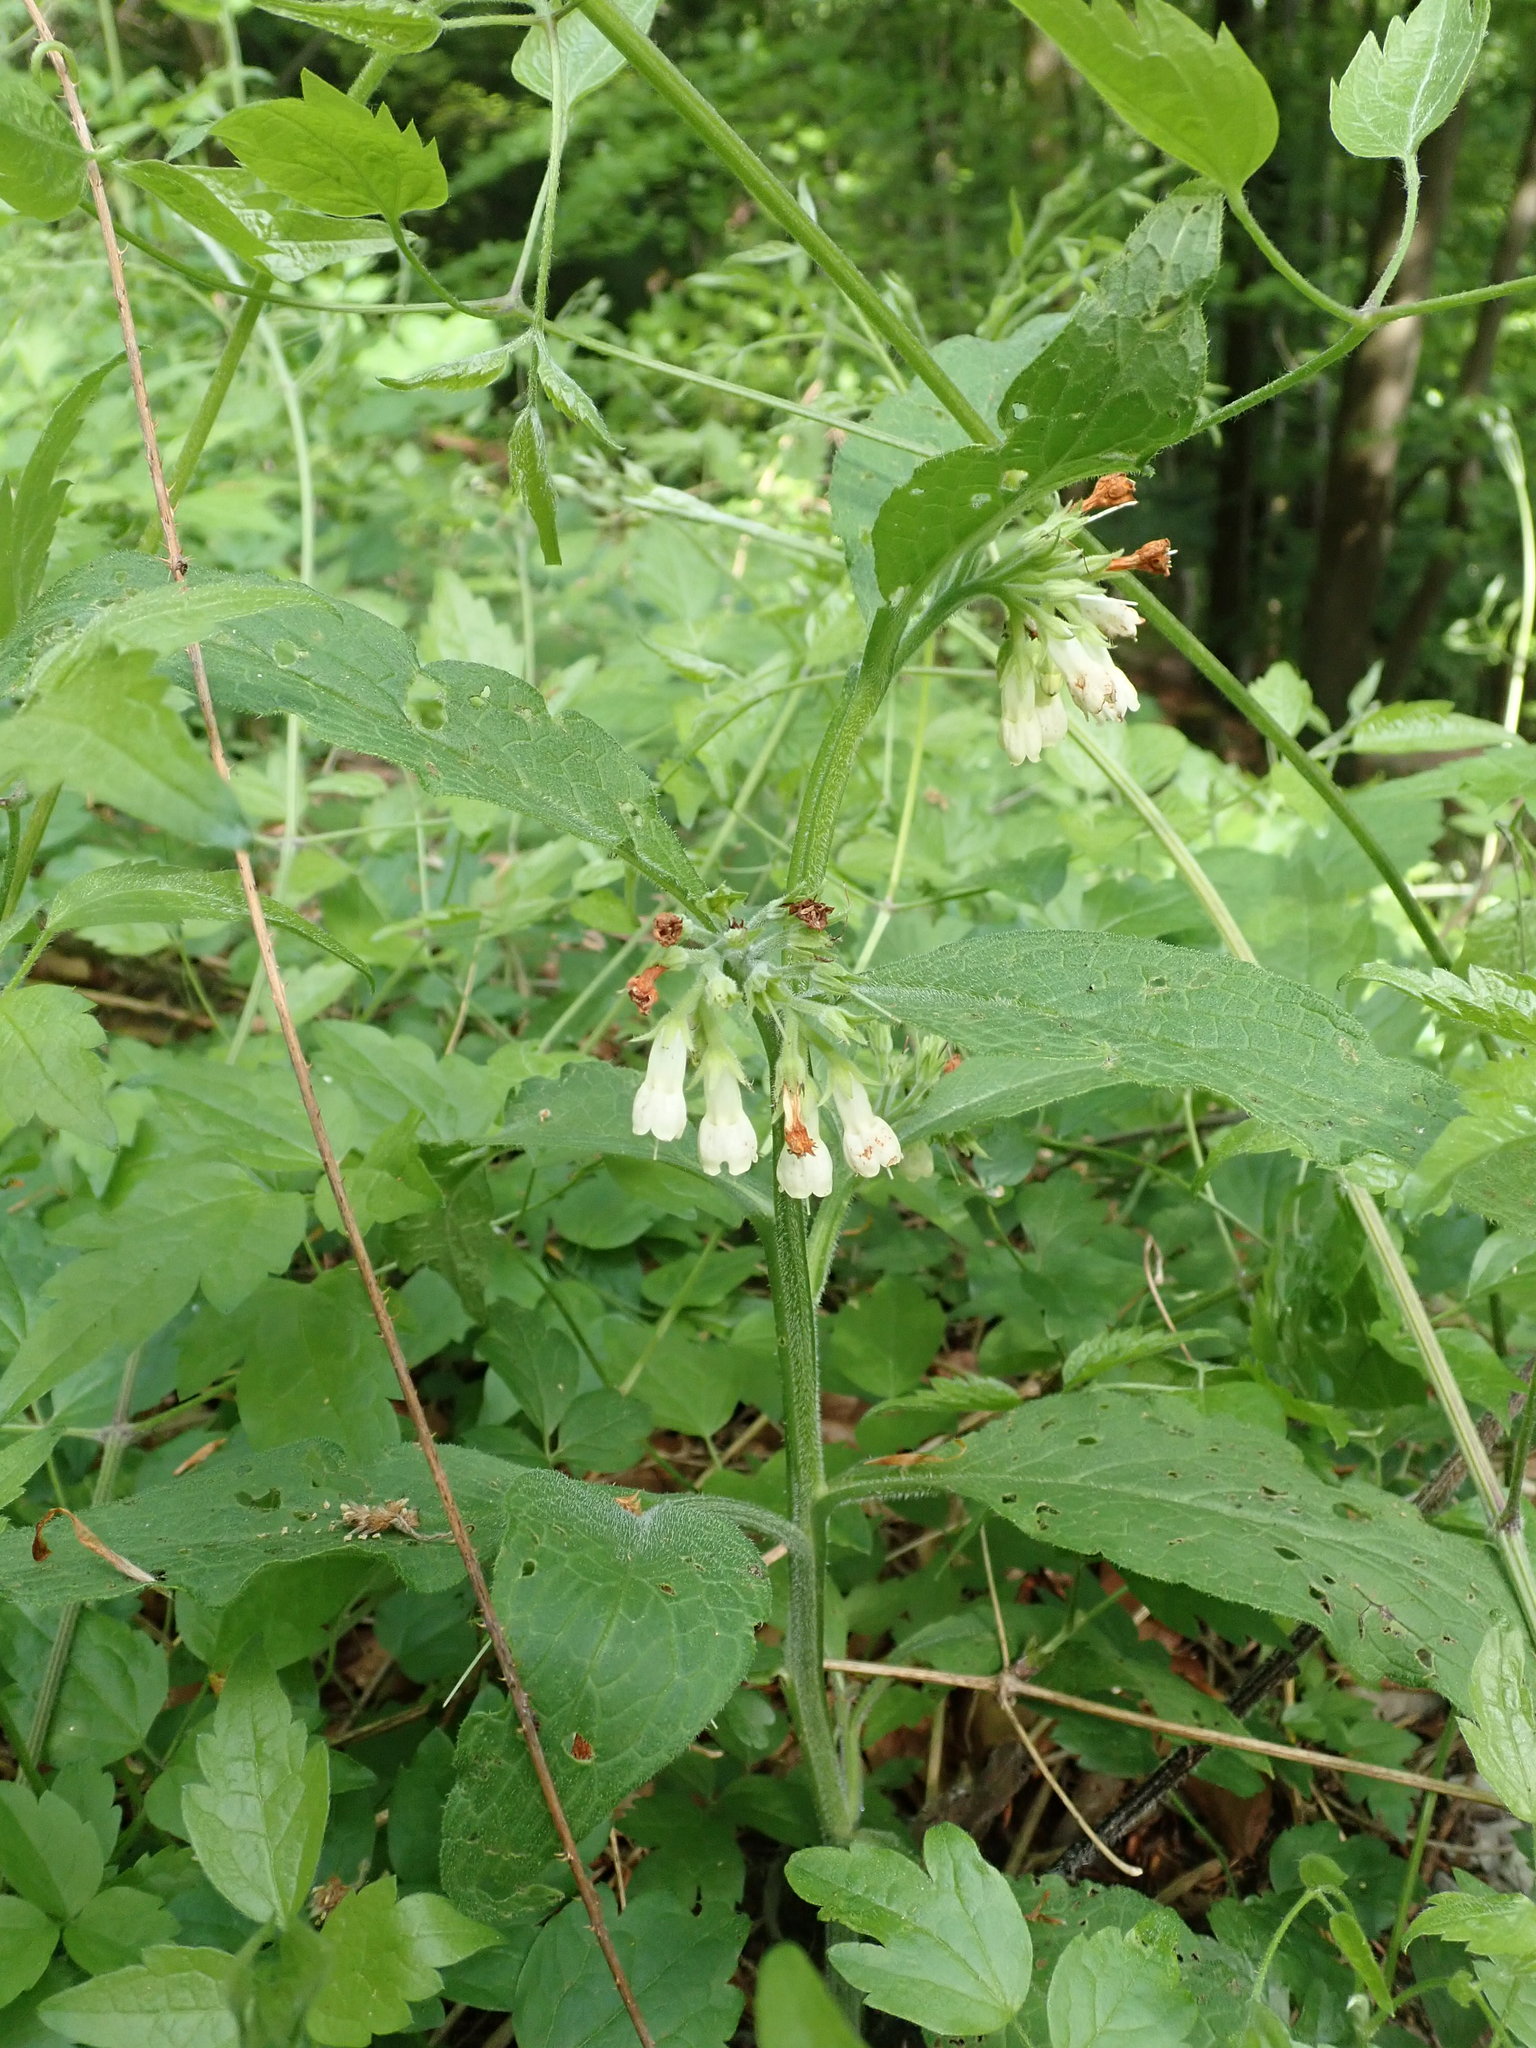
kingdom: Plantae
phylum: Tracheophyta
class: Magnoliopsida
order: Boraginales
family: Boraginaceae
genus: Symphytum
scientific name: Symphytum officinale
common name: Common comfrey
